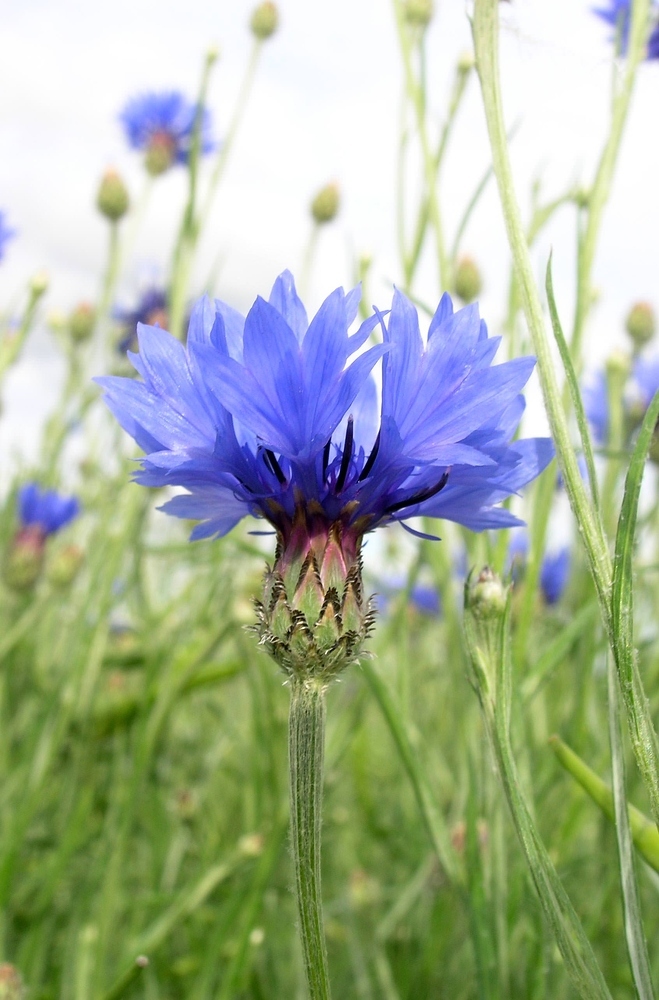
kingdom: Plantae
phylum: Tracheophyta
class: Magnoliopsida
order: Asterales
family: Asteraceae
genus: Centaurea
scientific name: Centaurea cyanus
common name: Cornflower
